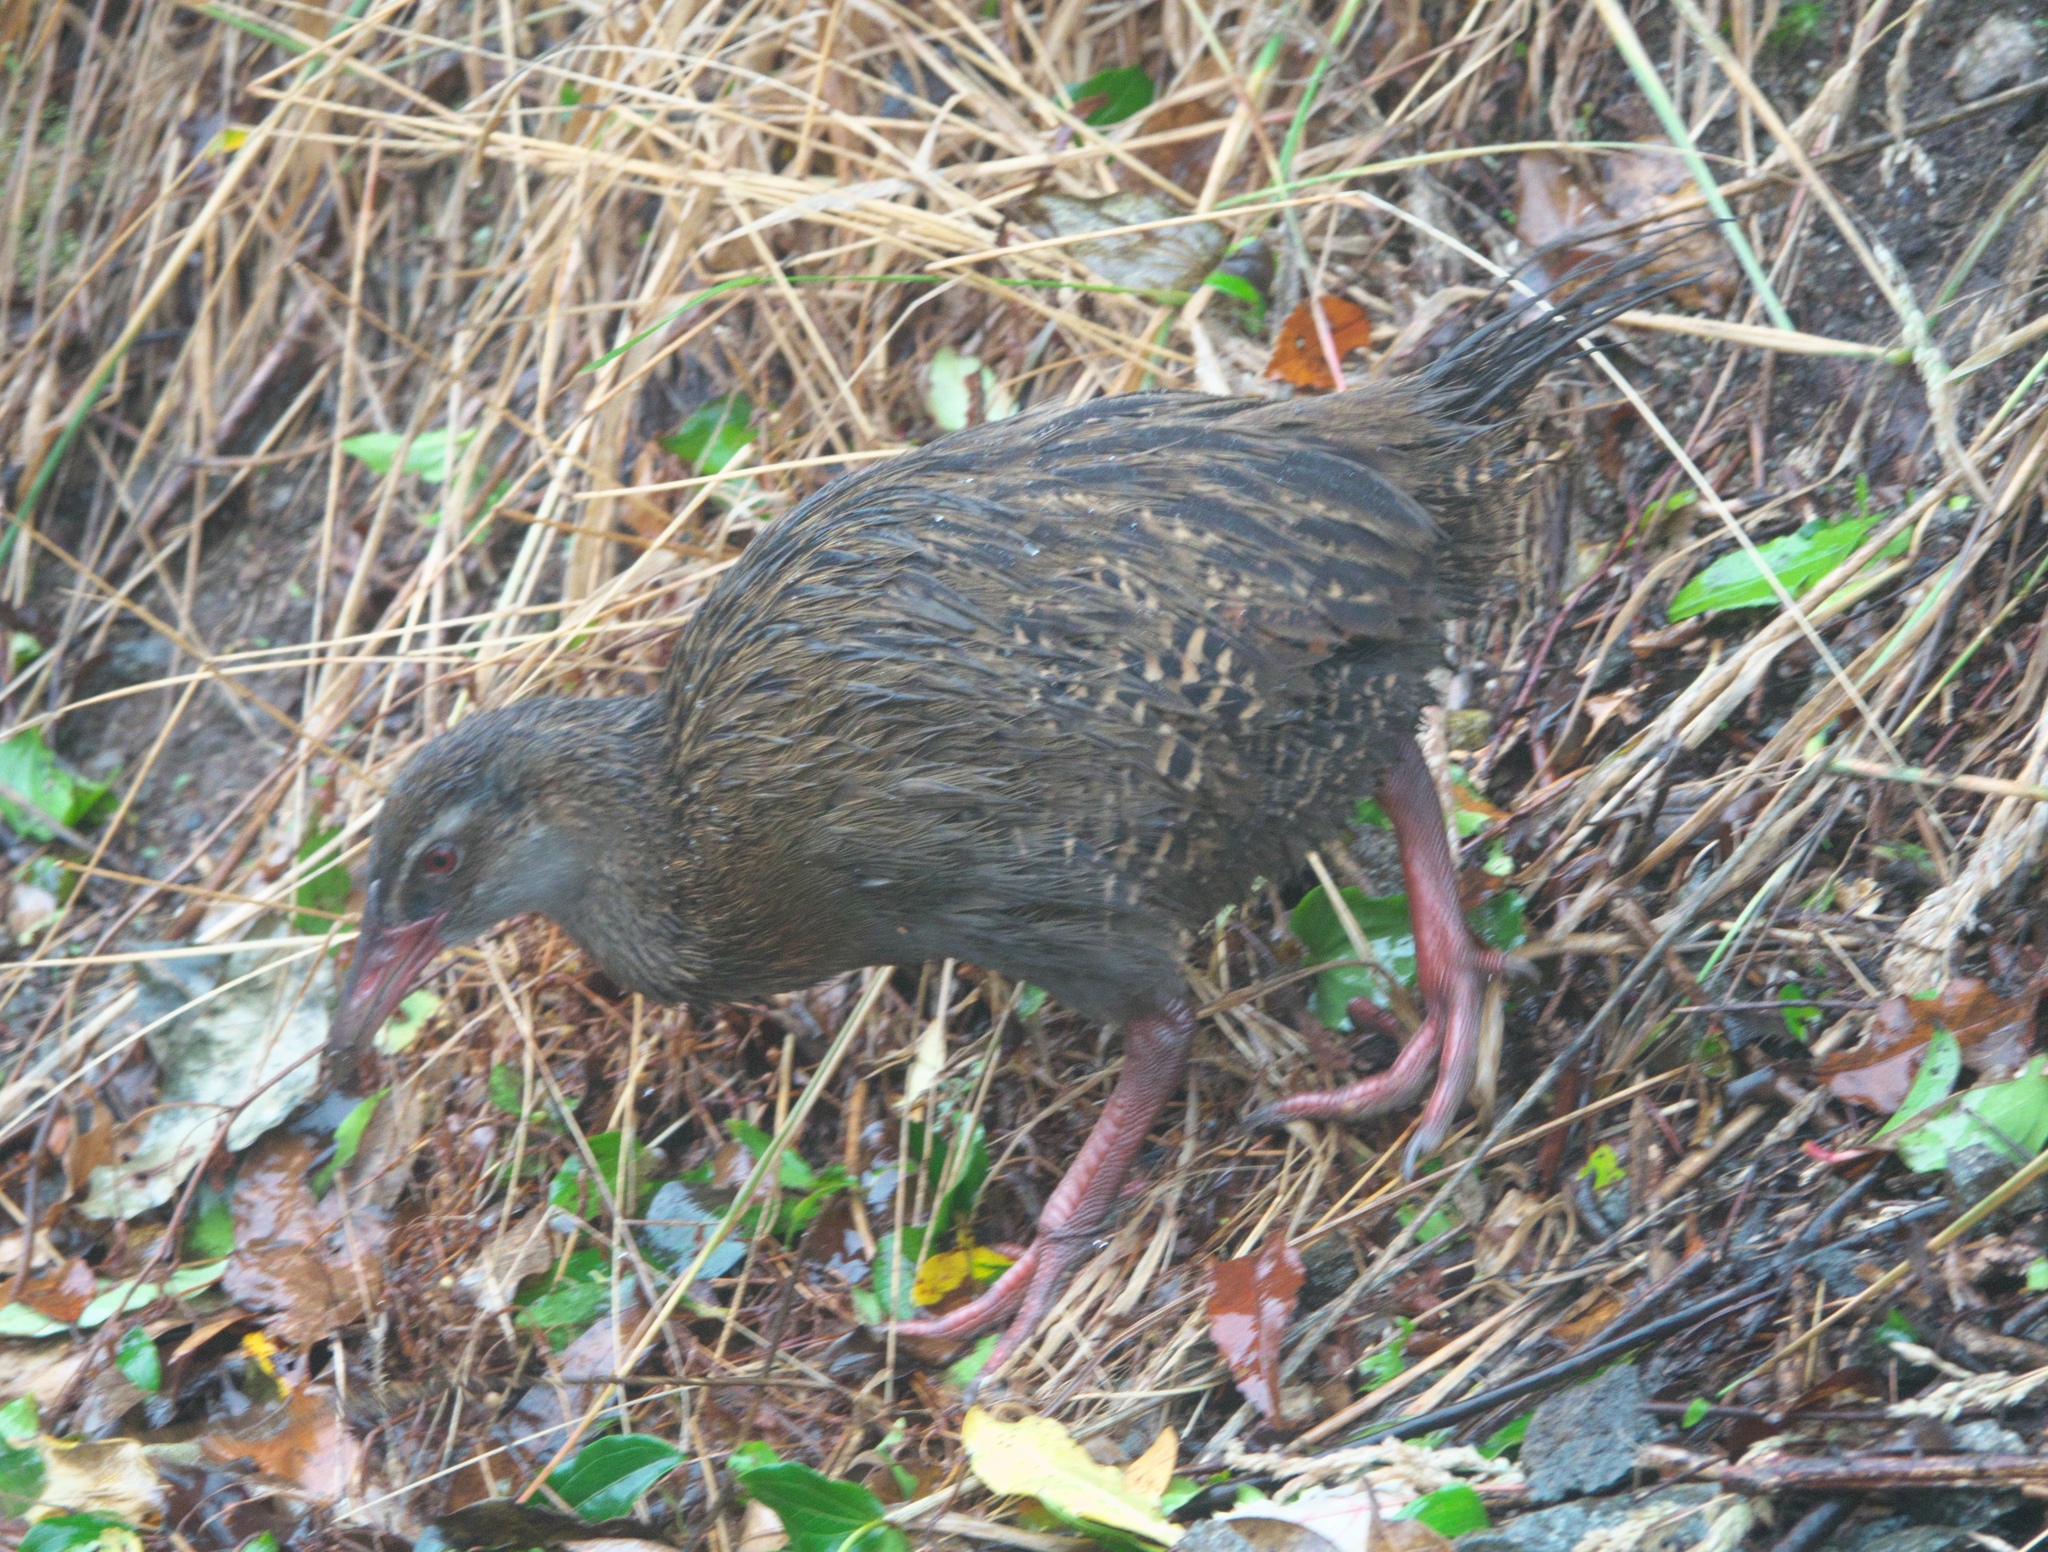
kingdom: Animalia
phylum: Chordata
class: Aves
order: Gruiformes
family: Rallidae
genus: Gallirallus
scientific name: Gallirallus australis
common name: Weka
